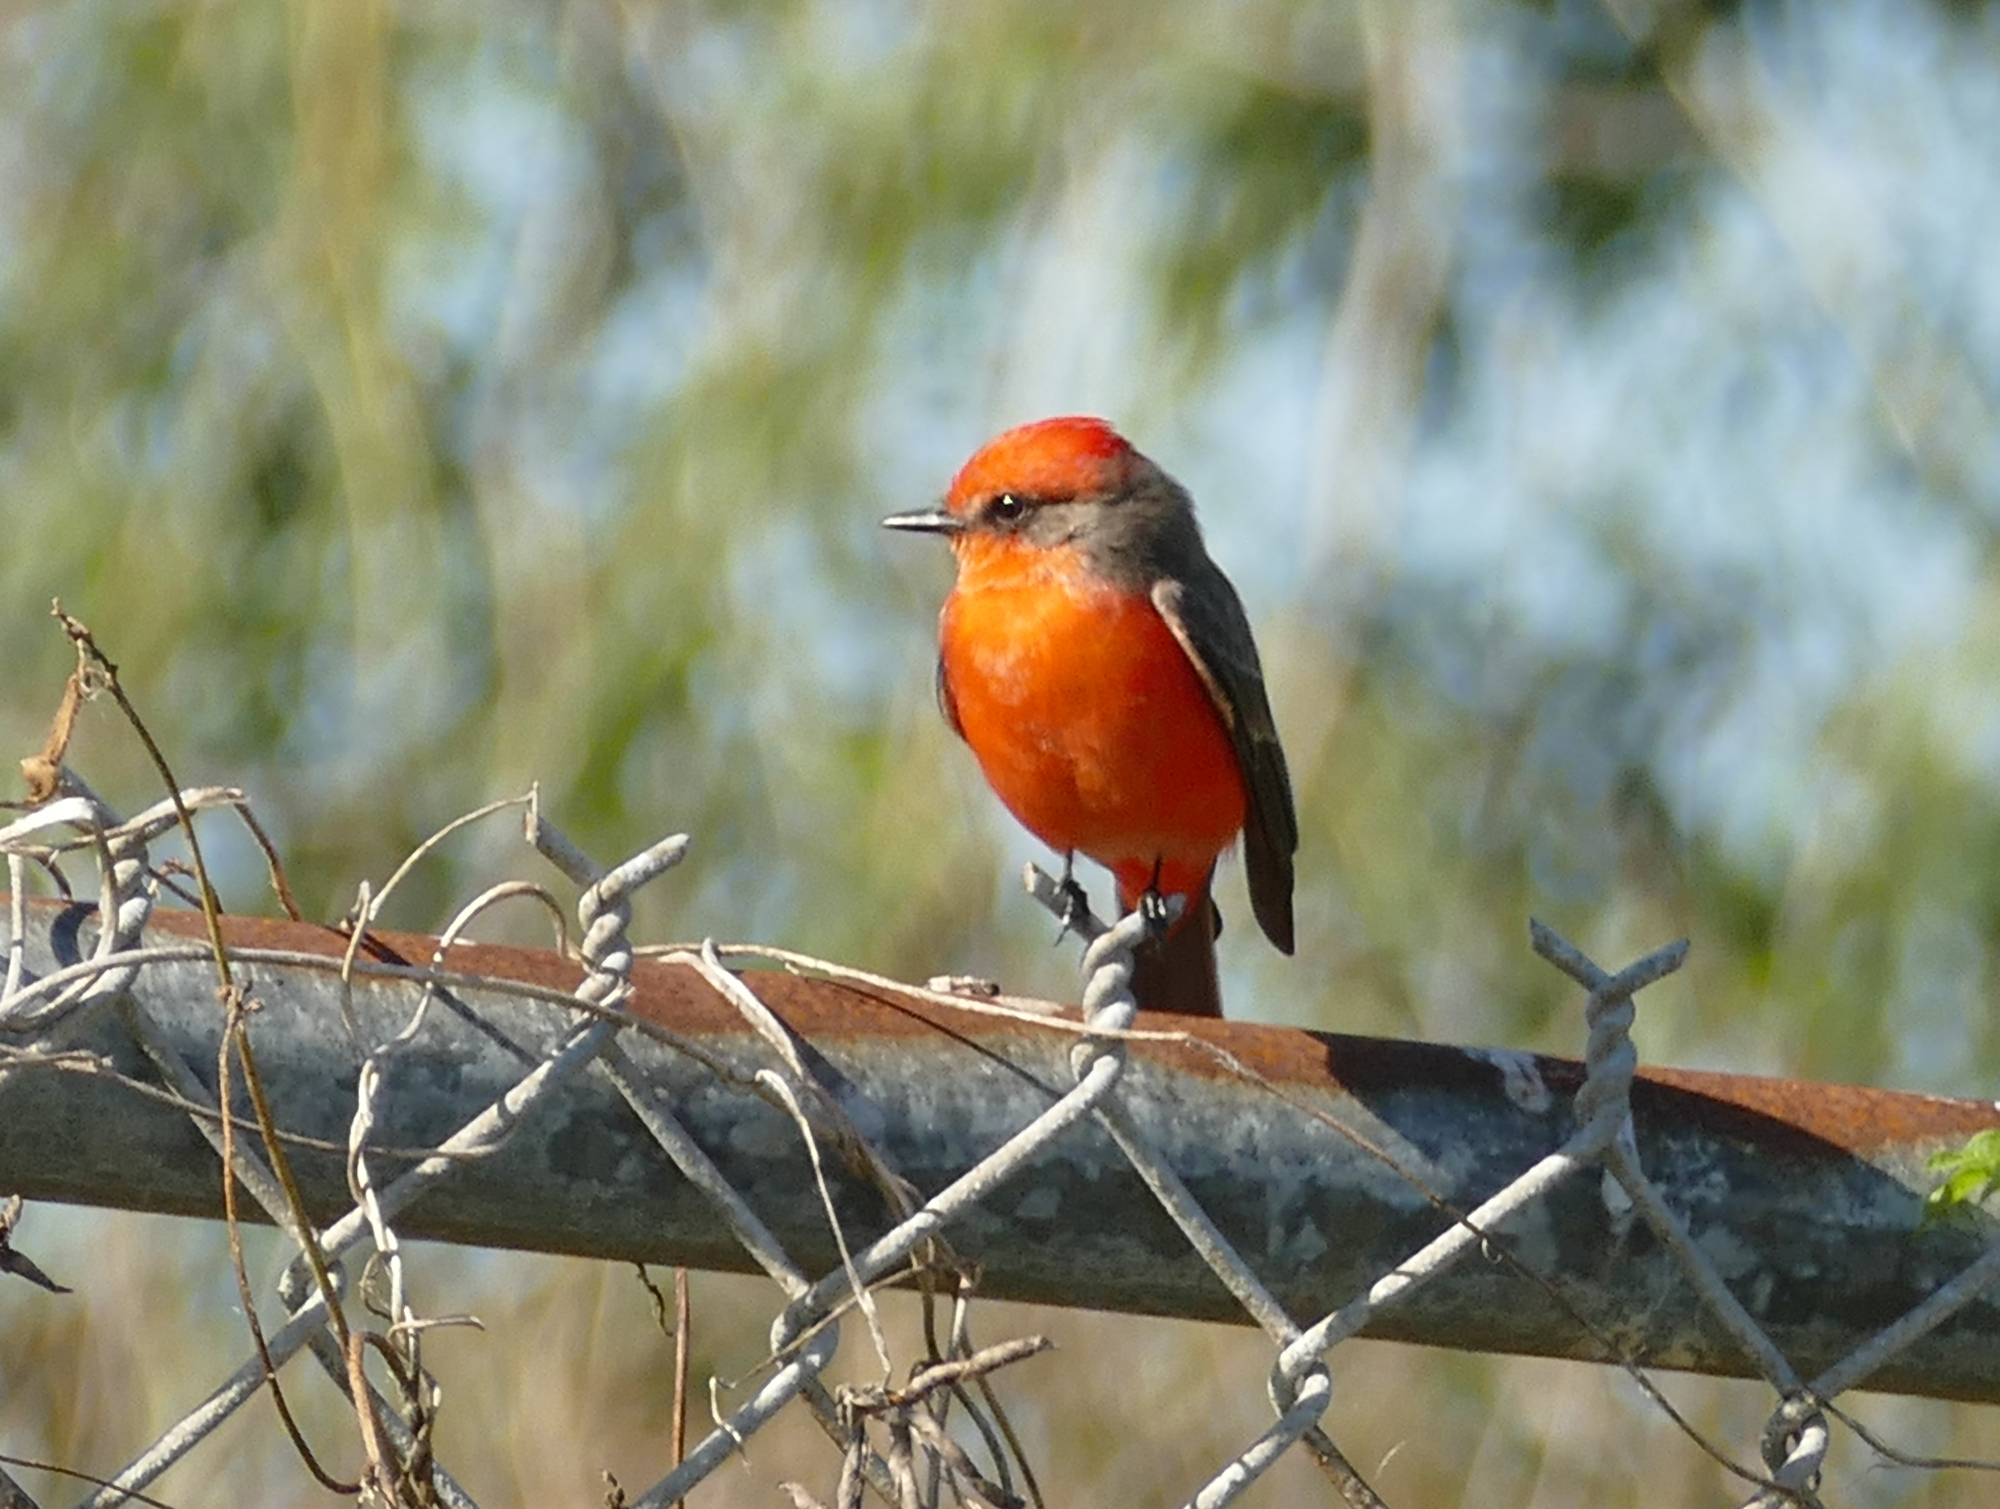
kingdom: Animalia
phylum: Chordata
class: Aves
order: Passeriformes
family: Tyrannidae
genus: Pyrocephalus
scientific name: Pyrocephalus rubinus
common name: Vermilion flycatcher
